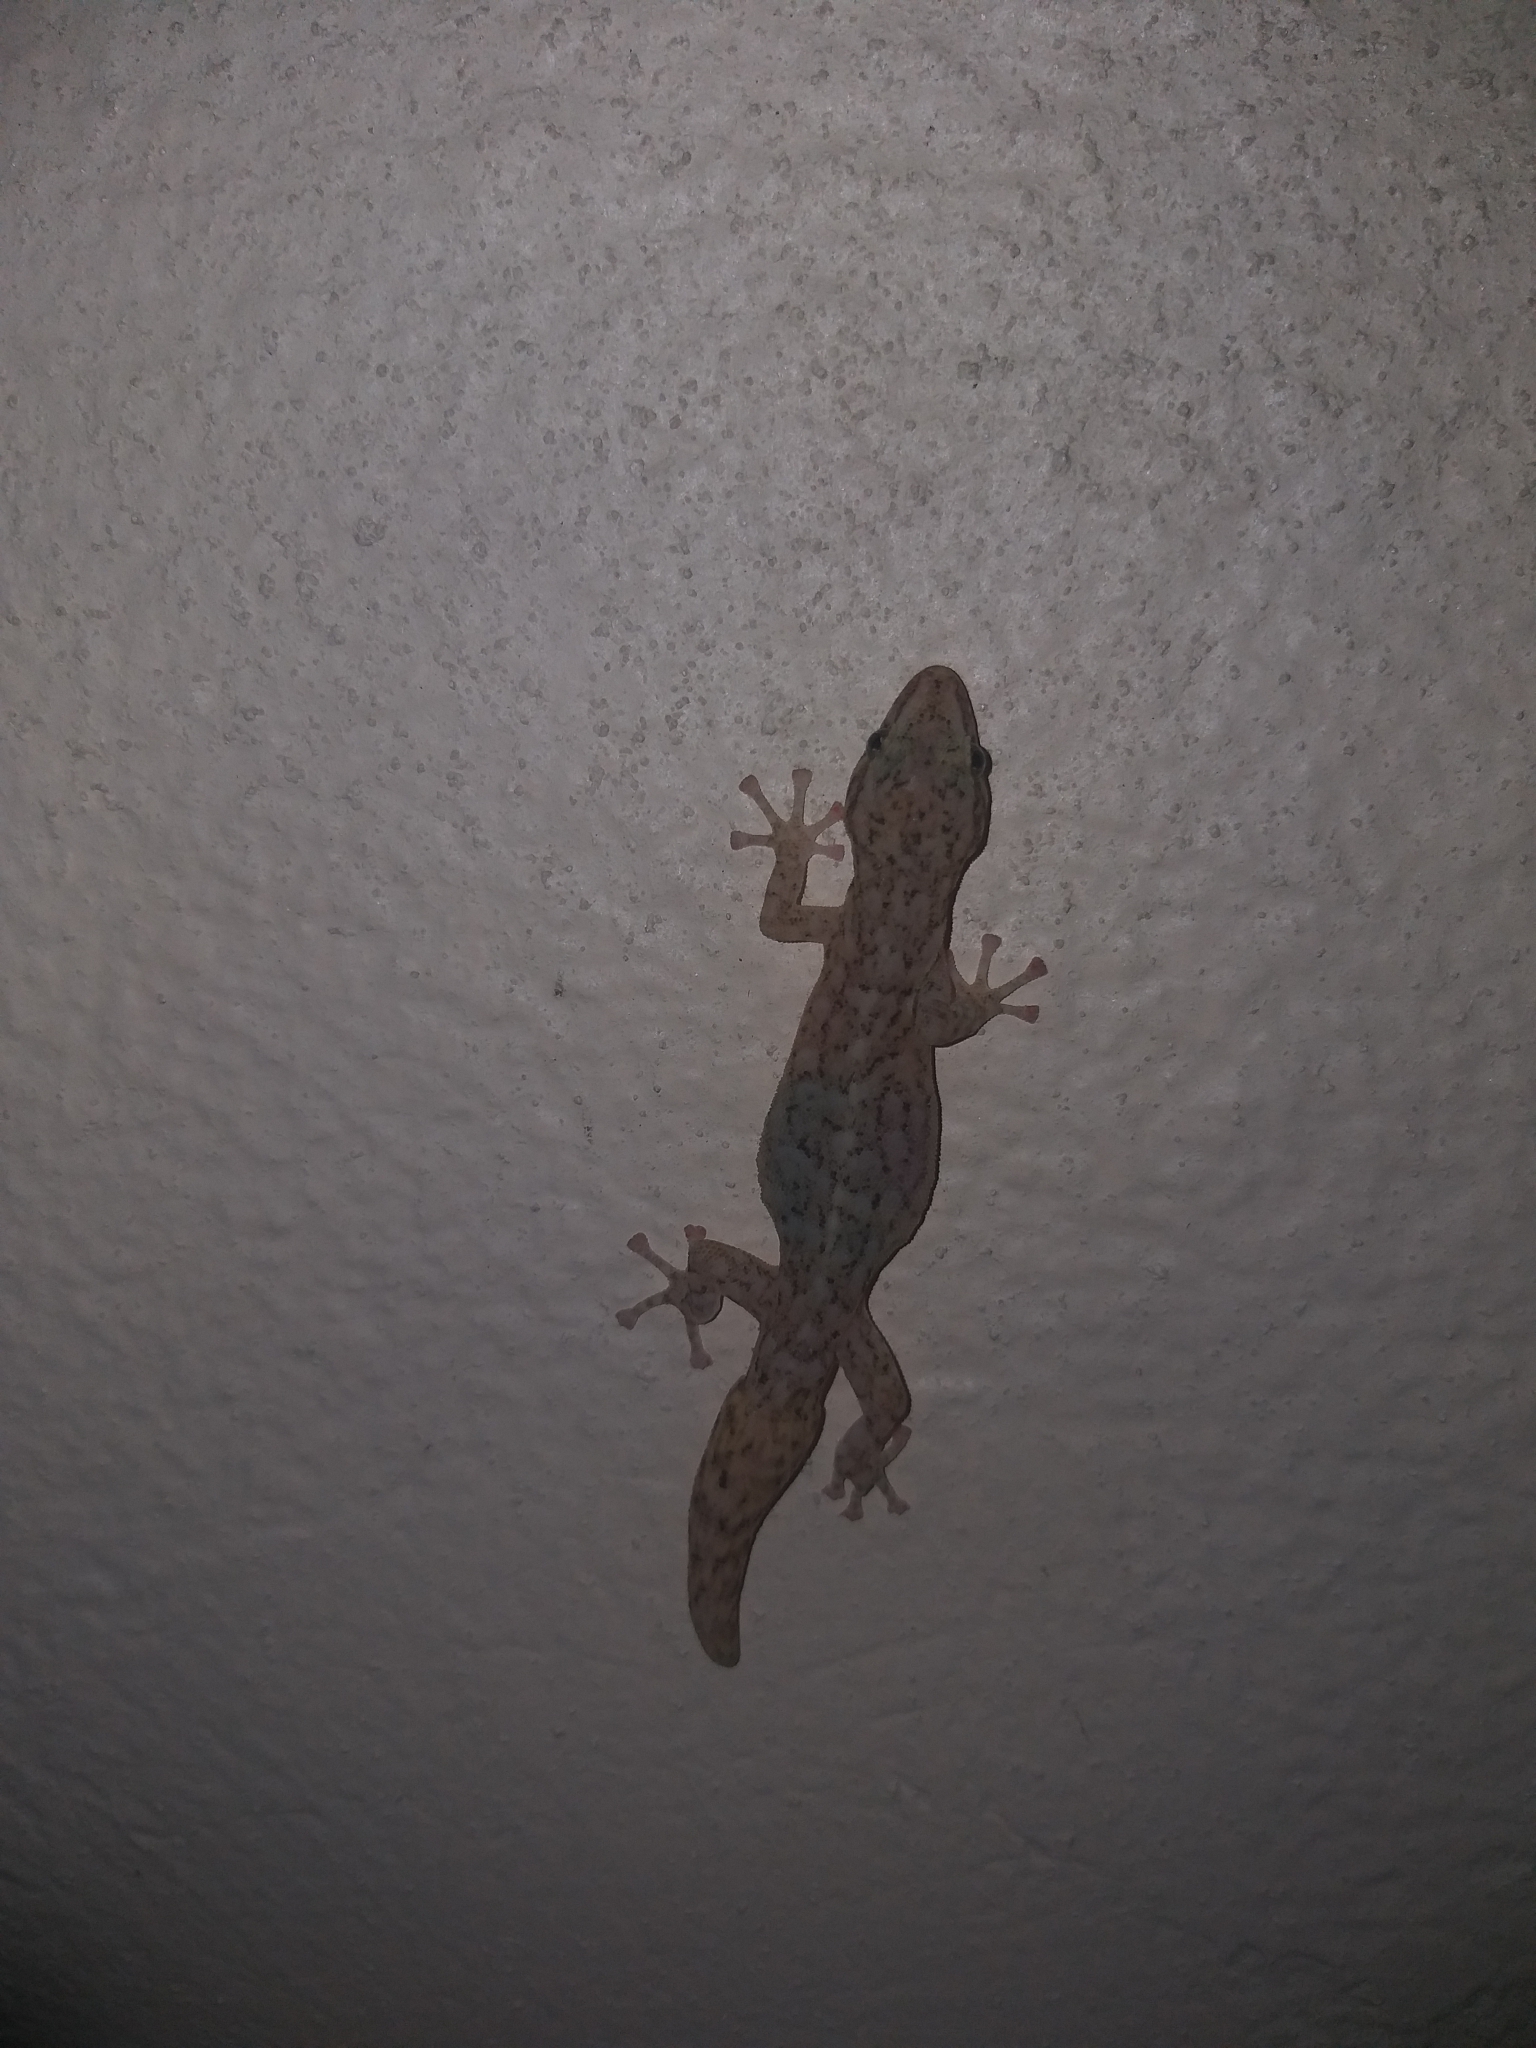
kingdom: Animalia
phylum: Chordata
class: Squamata
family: Gekkonidae
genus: Afrogecko
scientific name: Afrogecko porphyreus
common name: Marbled leaf-toed gecko
